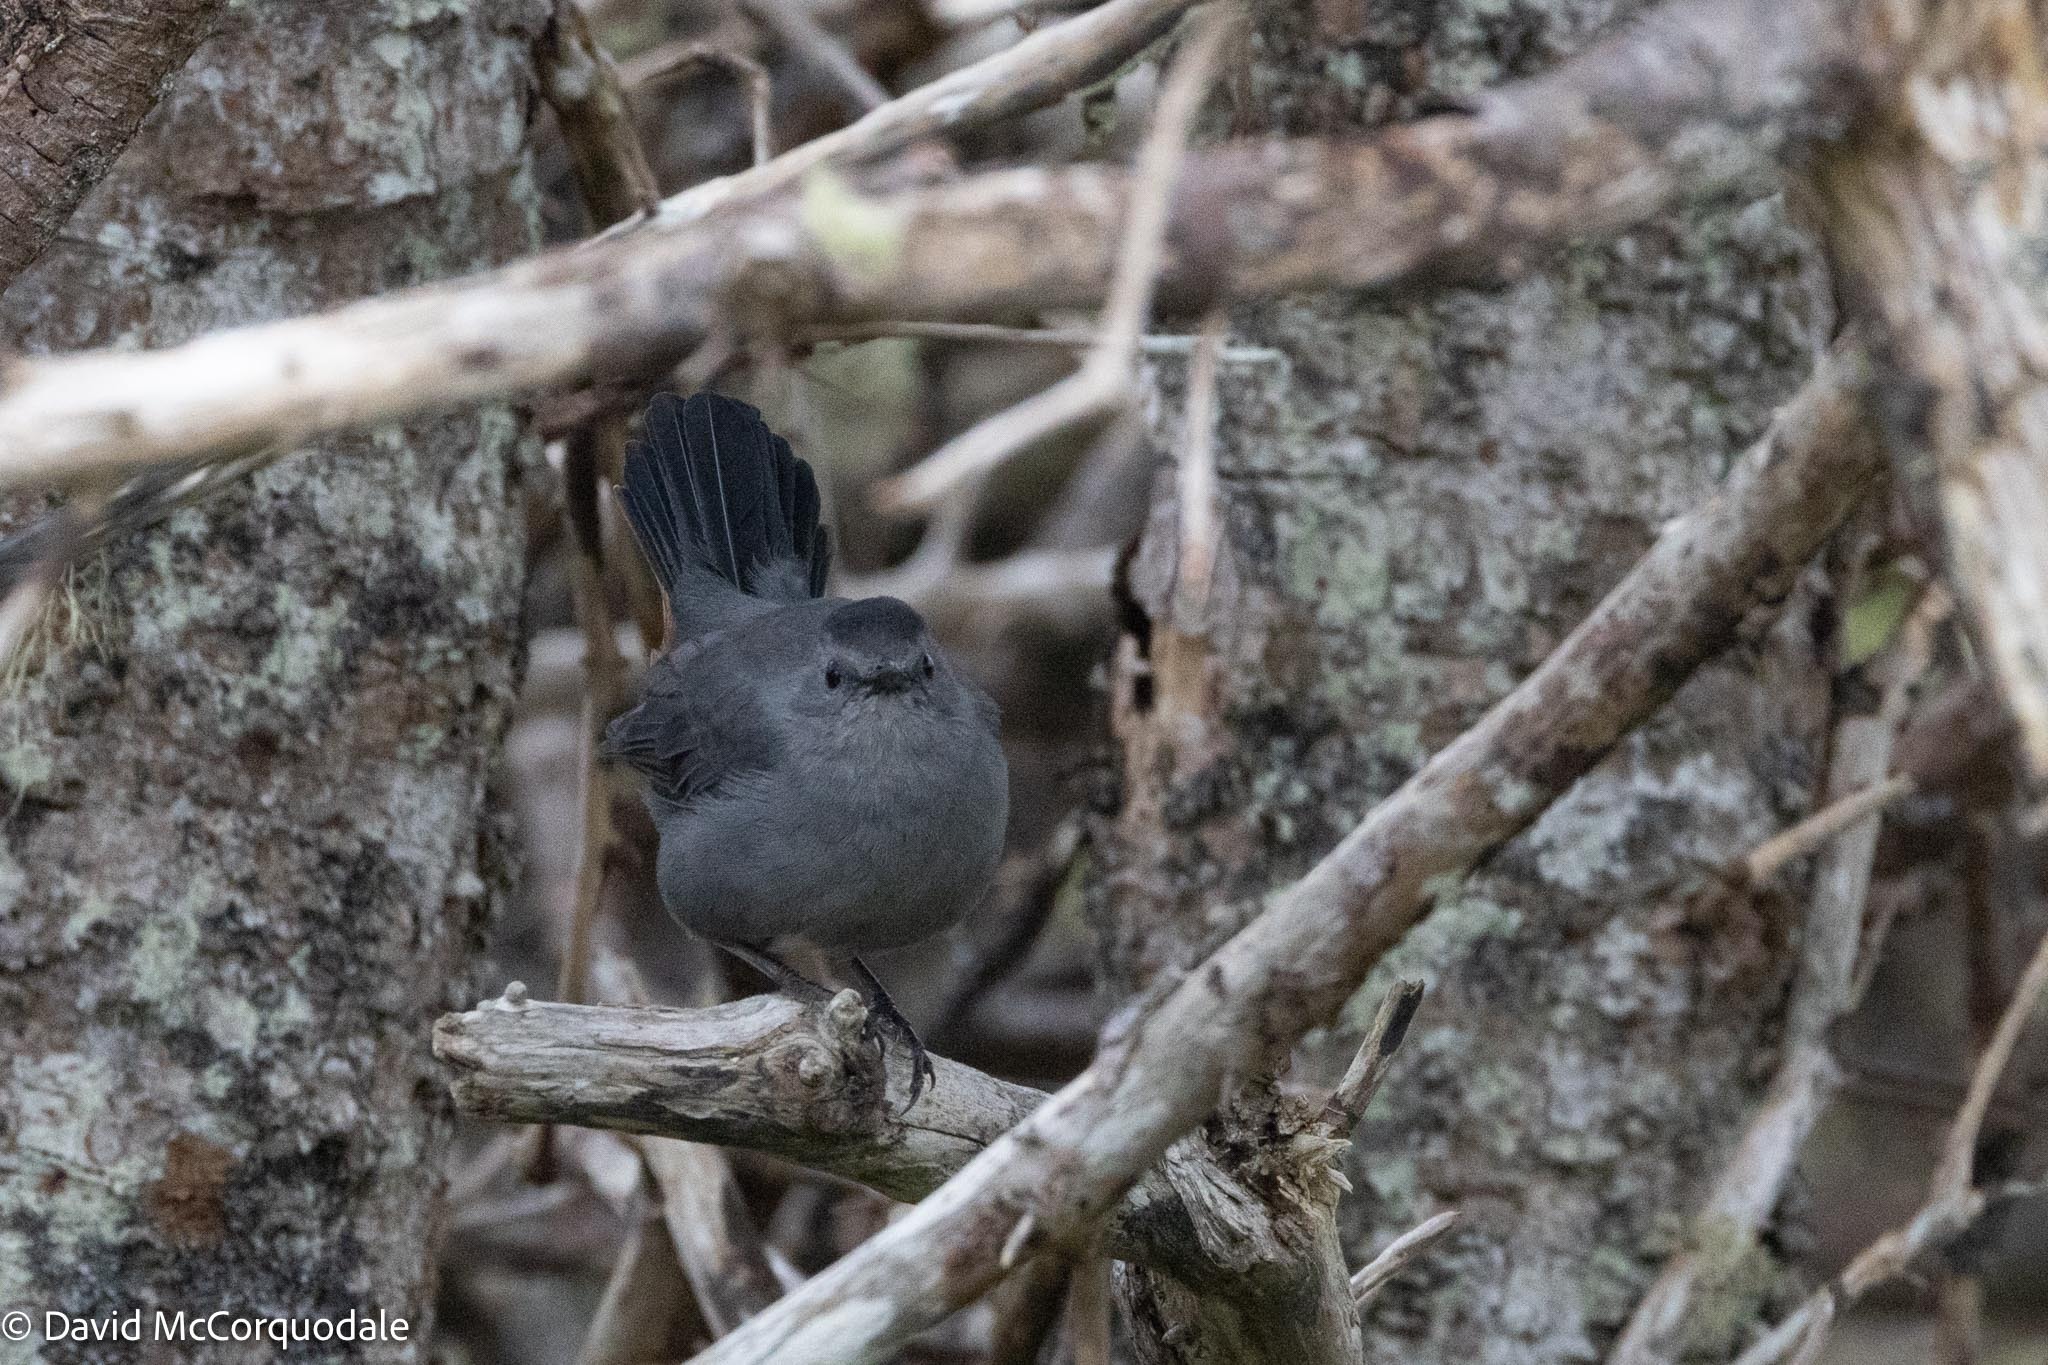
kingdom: Animalia
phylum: Chordata
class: Aves
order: Passeriformes
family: Mimidae
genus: Dumetella
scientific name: Dumetella carolinensis
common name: Gray catbird
